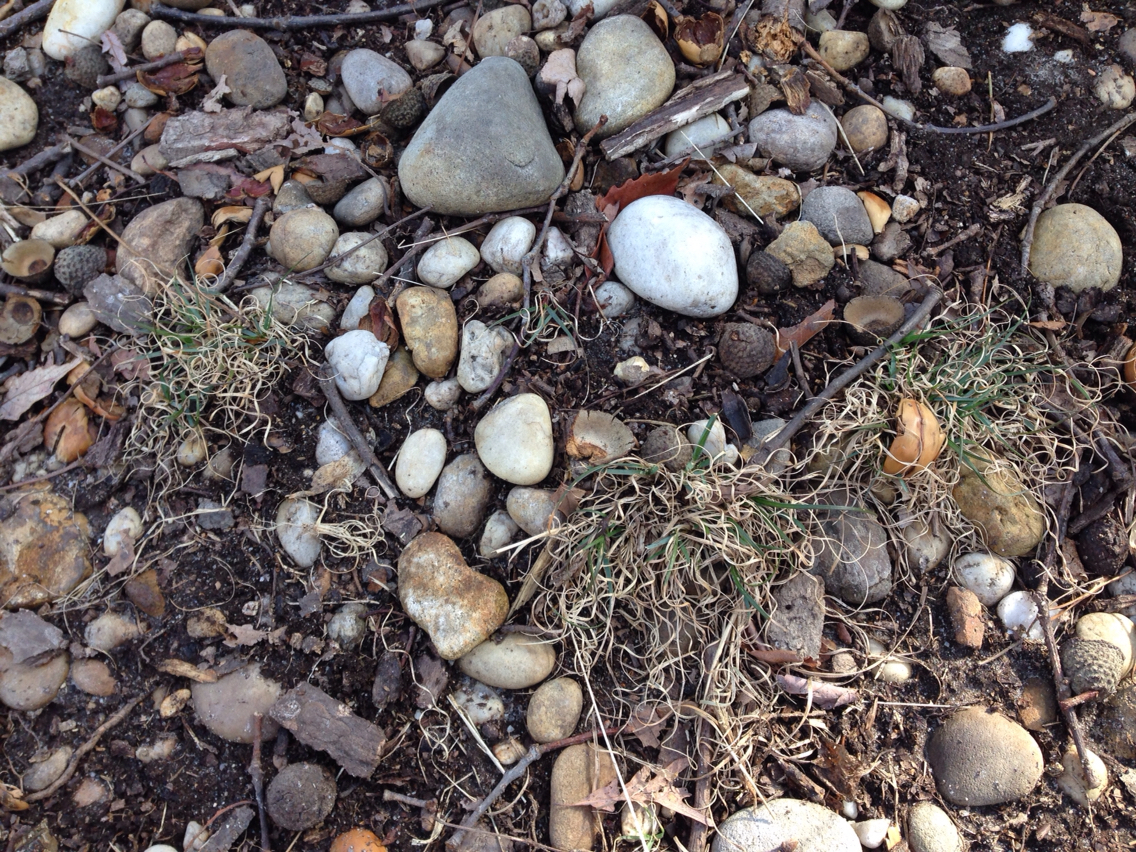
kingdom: Plantae
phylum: Tracheophyta
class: Liliopsida
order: Poales
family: Poaceae
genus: Danthonia
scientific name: Danthonia spicata
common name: Common wild oatgrass
